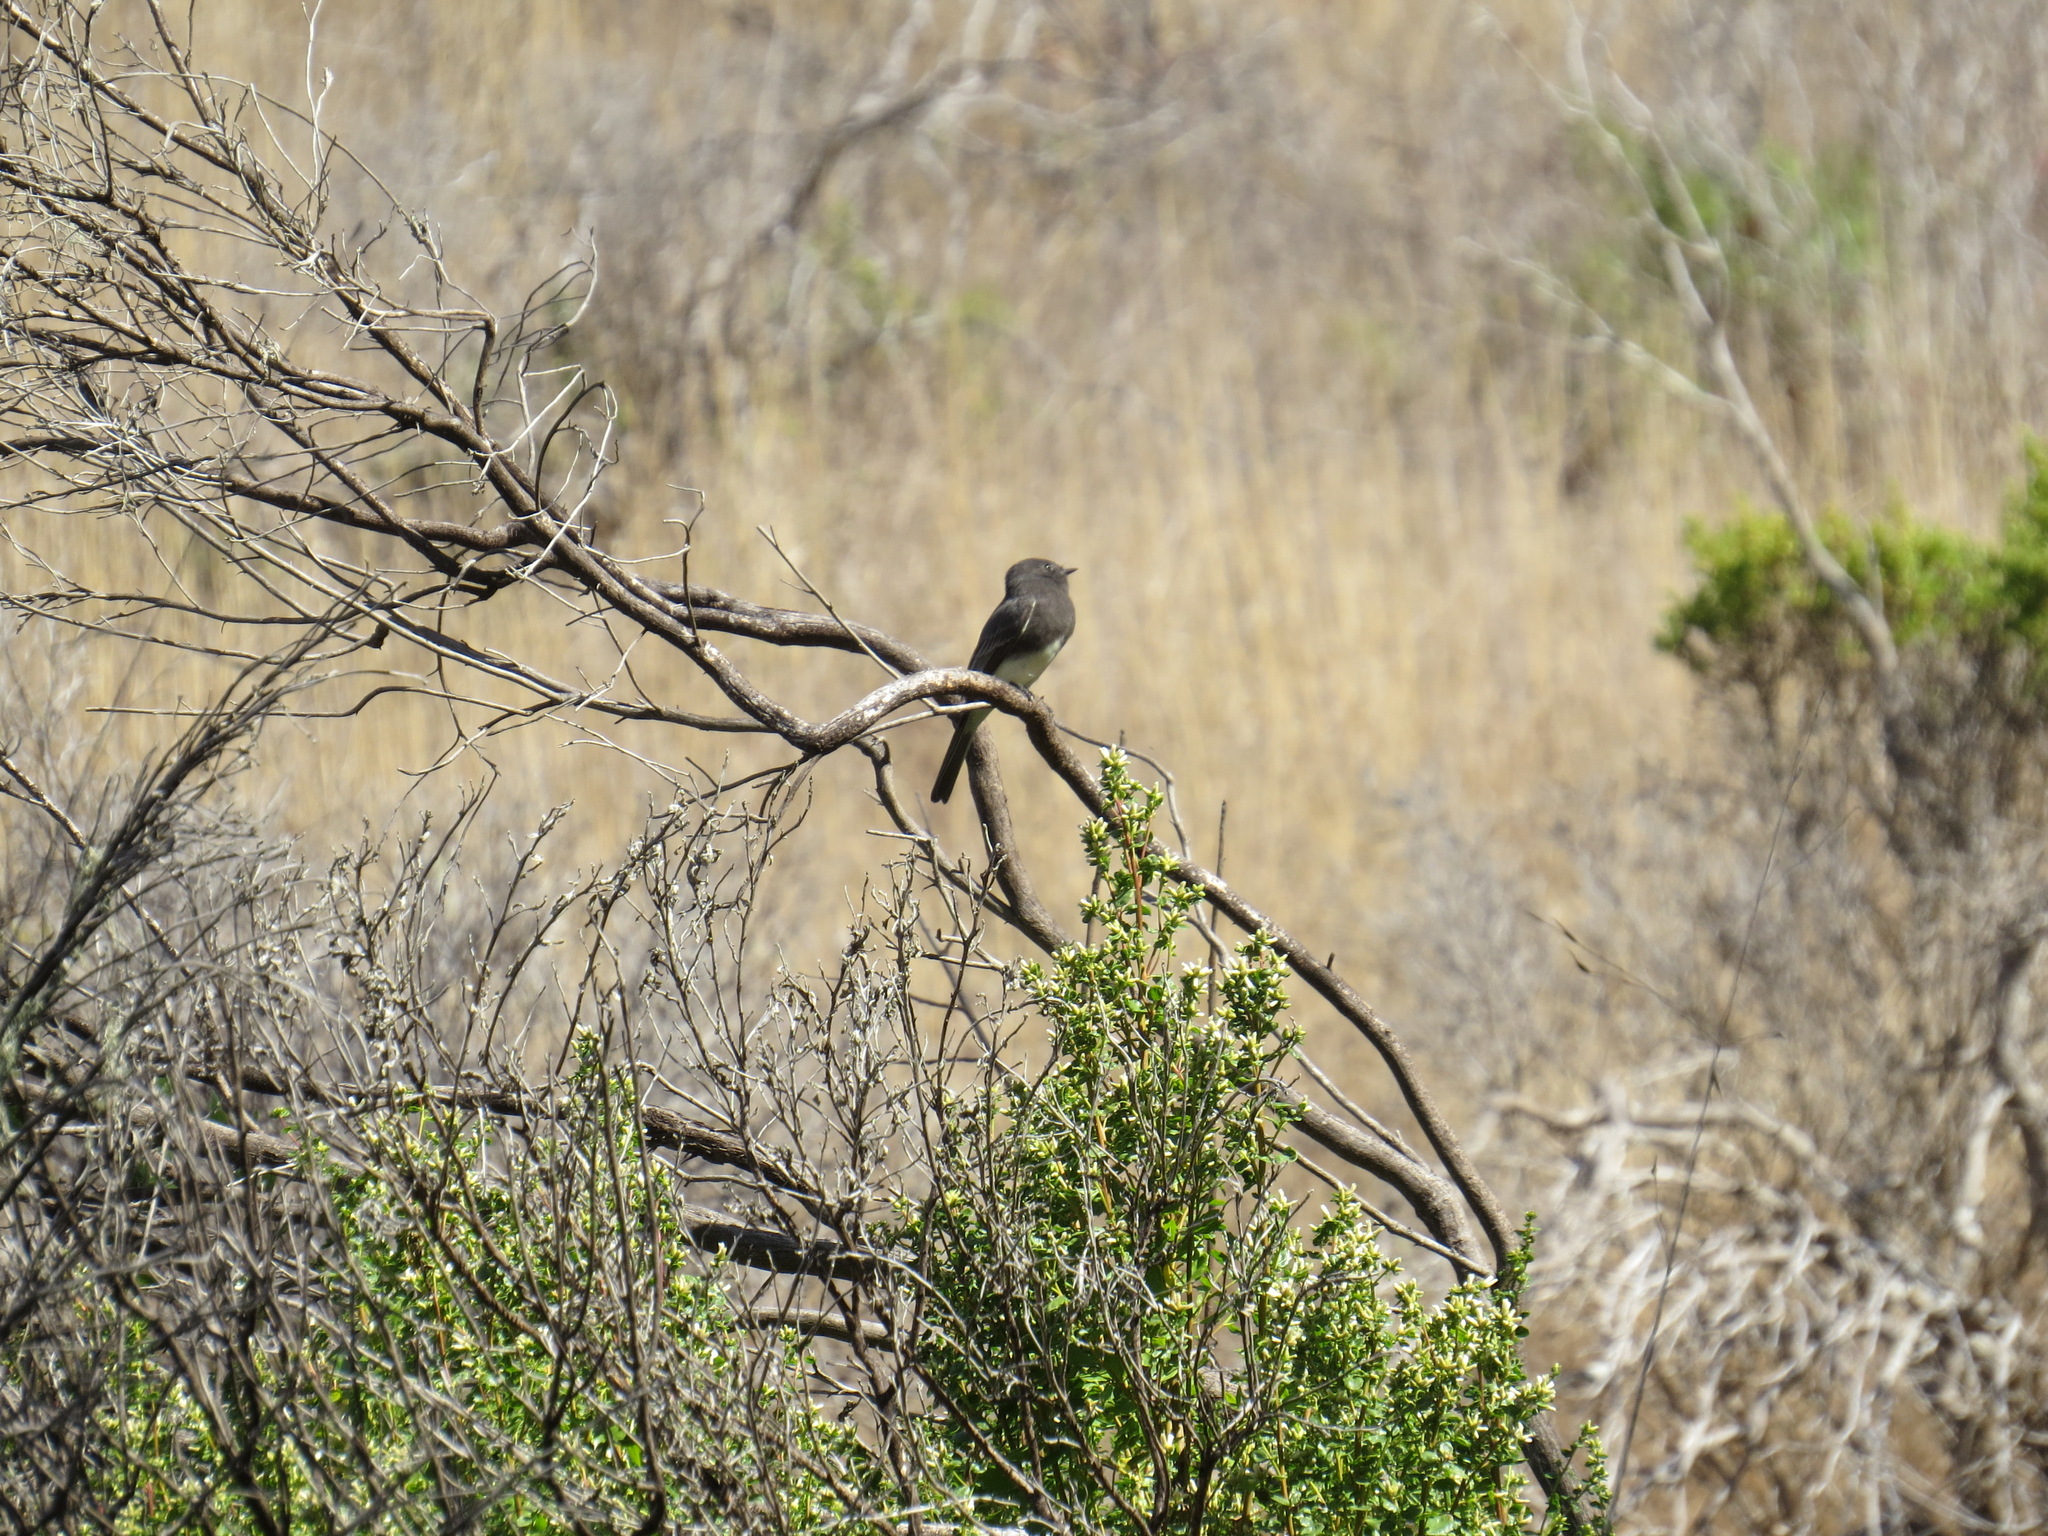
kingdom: Animalia
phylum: Chordata
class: Aves
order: Passeriformes
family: Tyrannidae
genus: Sayornis
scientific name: Sayornis nigricans
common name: Black phoebe
